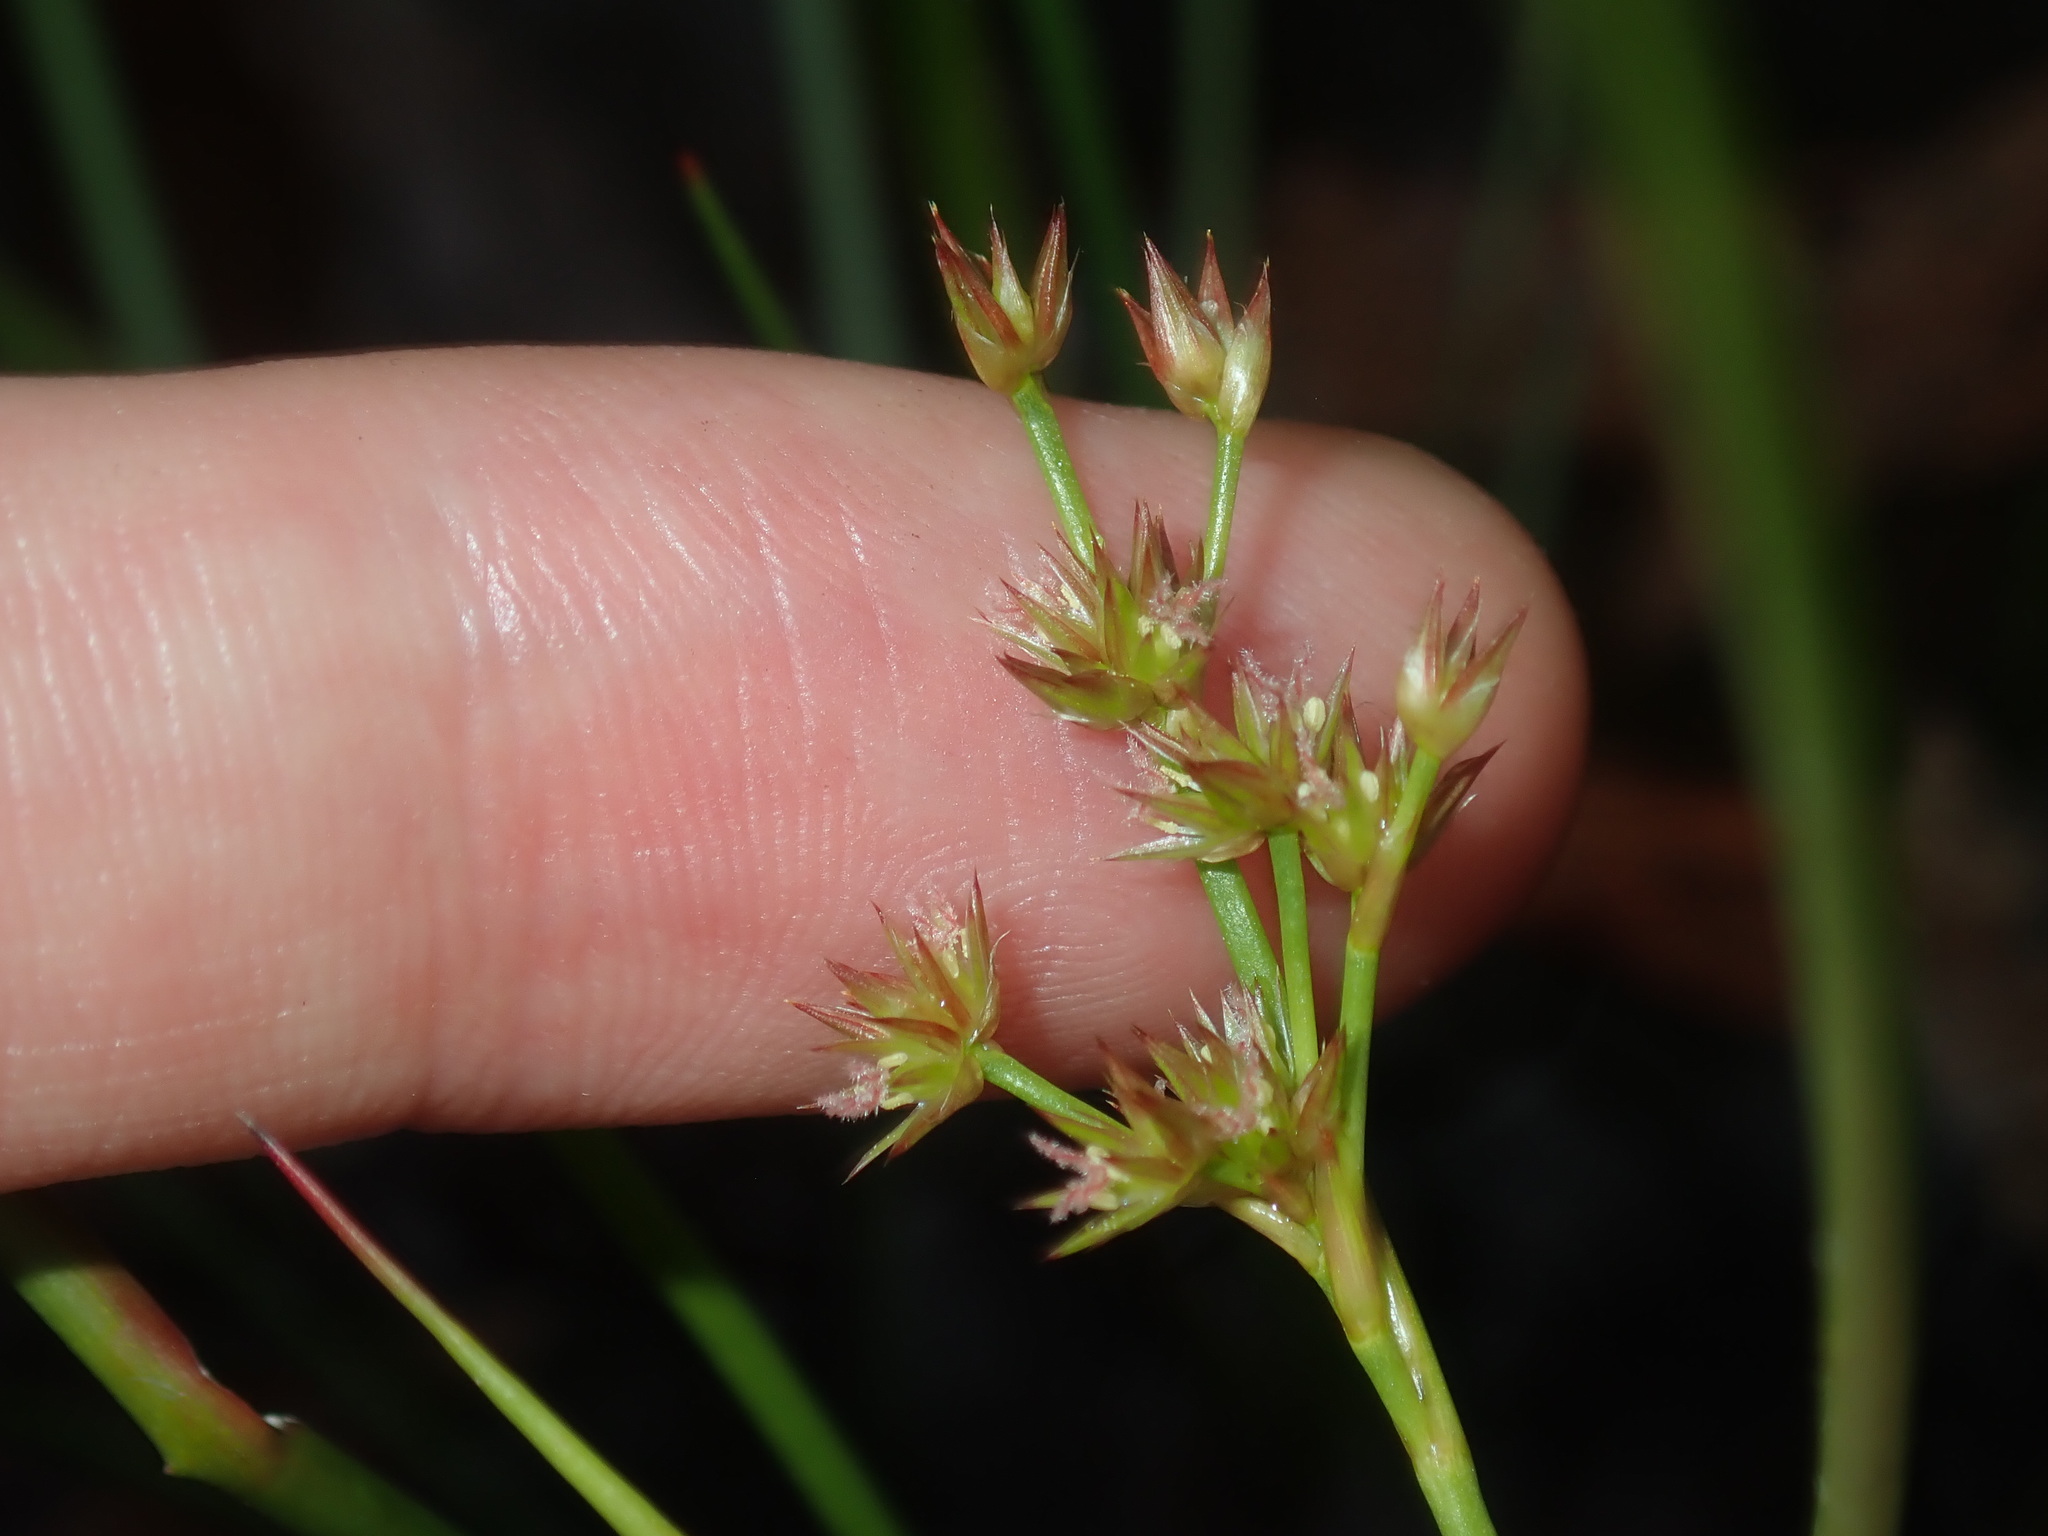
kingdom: Plantae
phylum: Tracheophyta
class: Liliopsida
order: Poales
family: Juncaceae
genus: Juncus
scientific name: Juncus prismatocarpus
